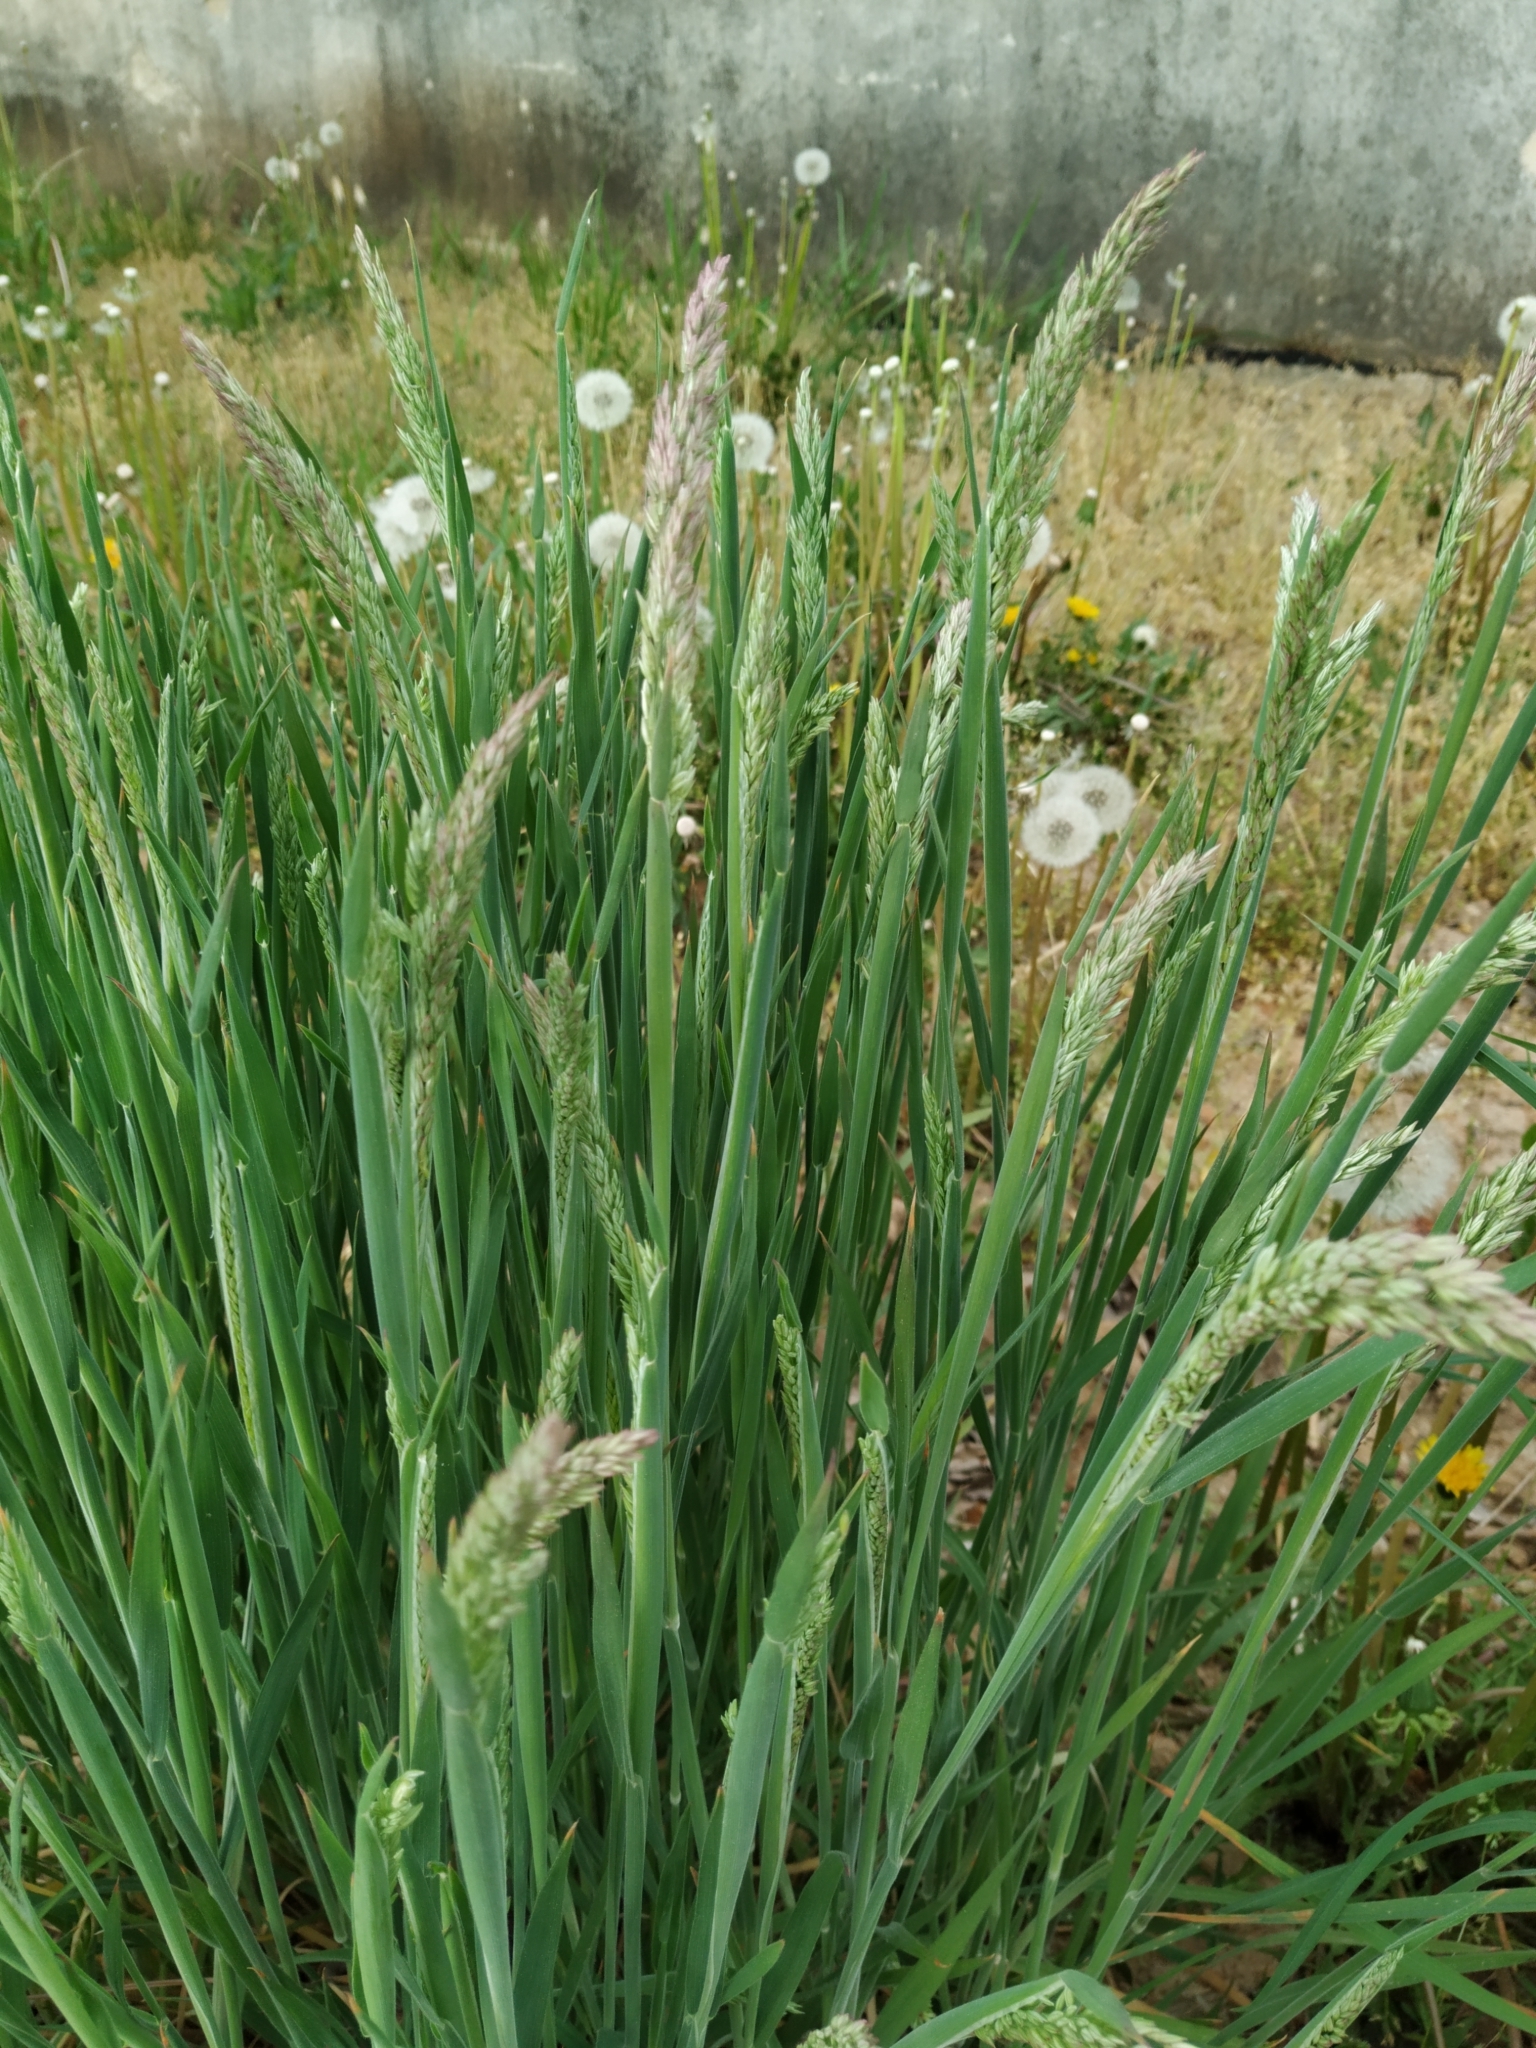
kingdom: Plantae
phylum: Tracheophyta
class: Liliopsida
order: Poales
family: Poaceae
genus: Holcus
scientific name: Holcus lanatus
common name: Yorkshire-fog
